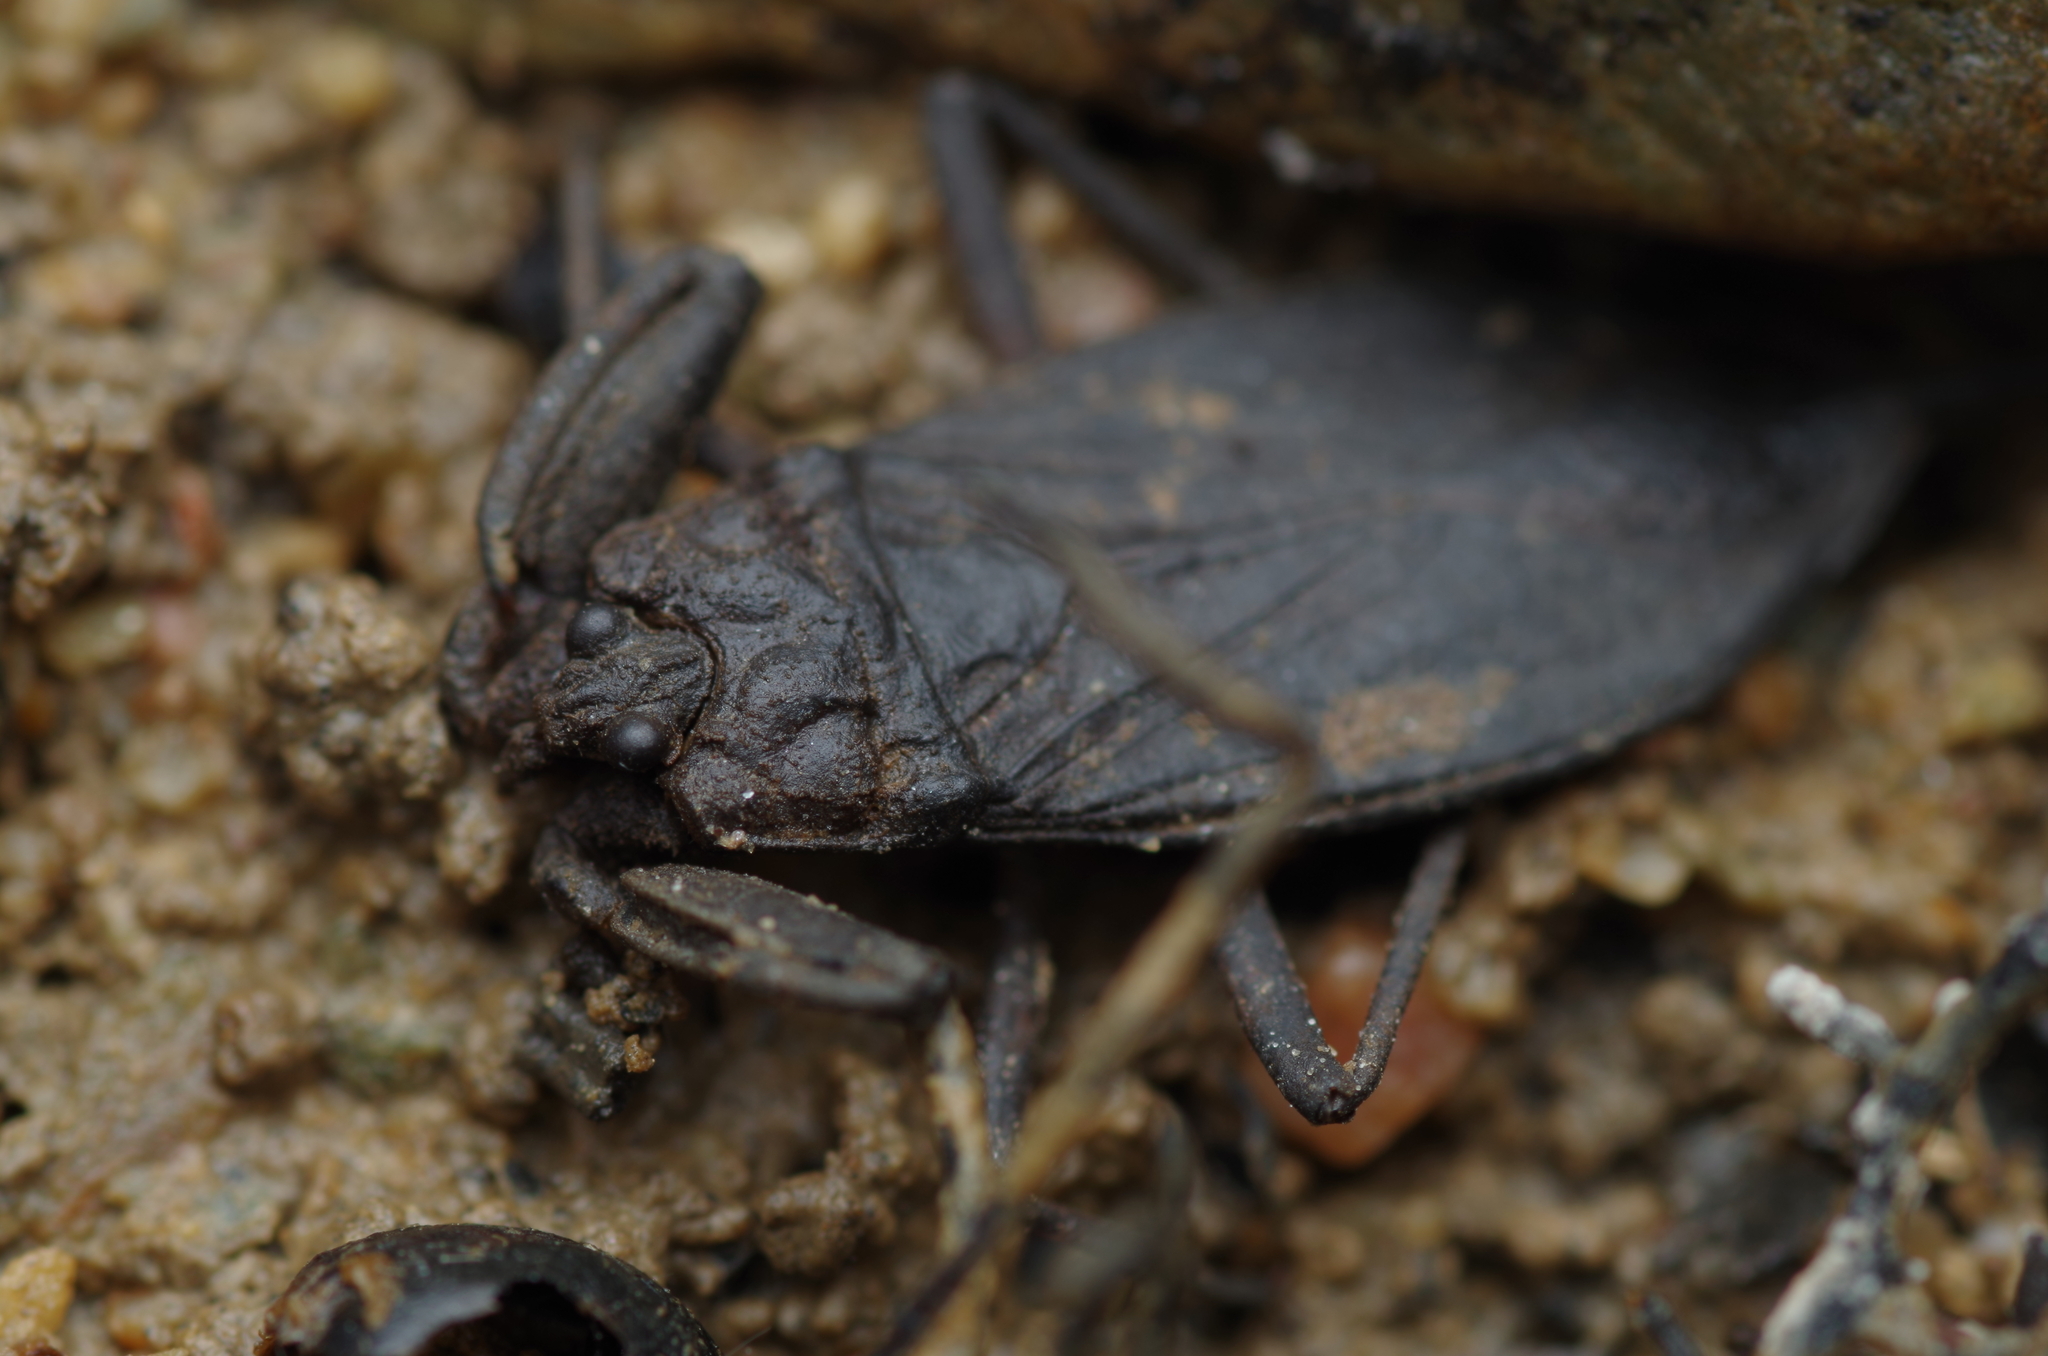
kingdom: Animalia
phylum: Arthropoda
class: Insecta
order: Hemiptera
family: Nepidae
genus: Nepa
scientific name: Nepa cinerea
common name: Water scorpion
